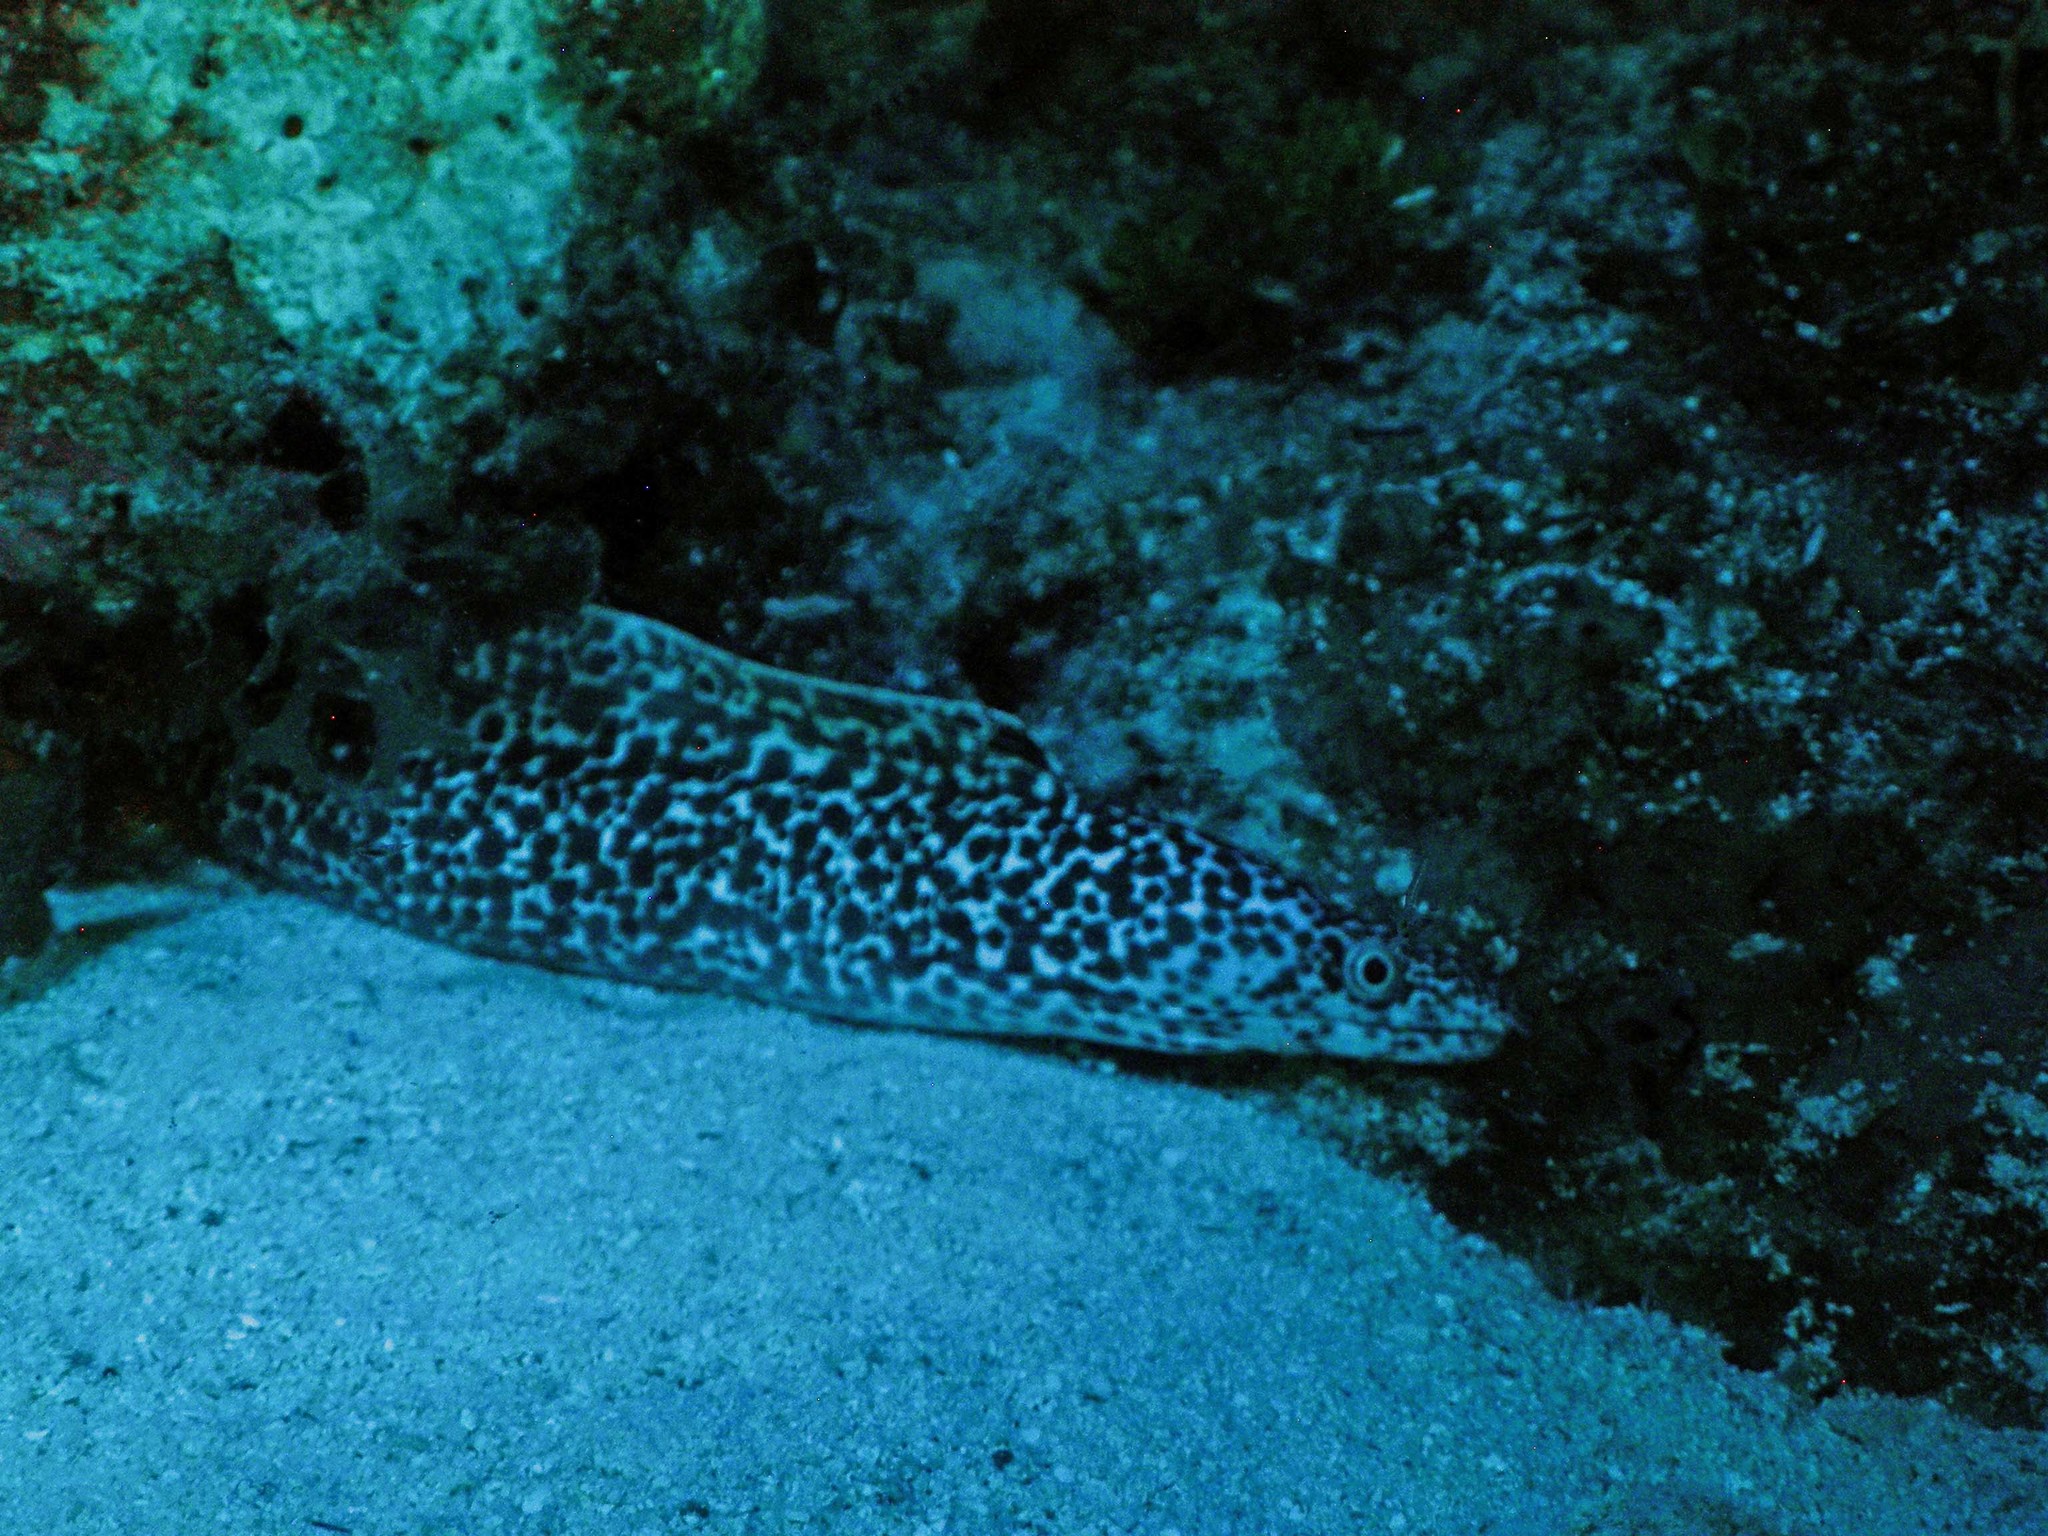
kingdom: Animalia
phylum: Chordata
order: Anguilliformes
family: Muraenidae
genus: Gymnothorax
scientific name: Gymnothorax moringa
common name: Spotted moray
